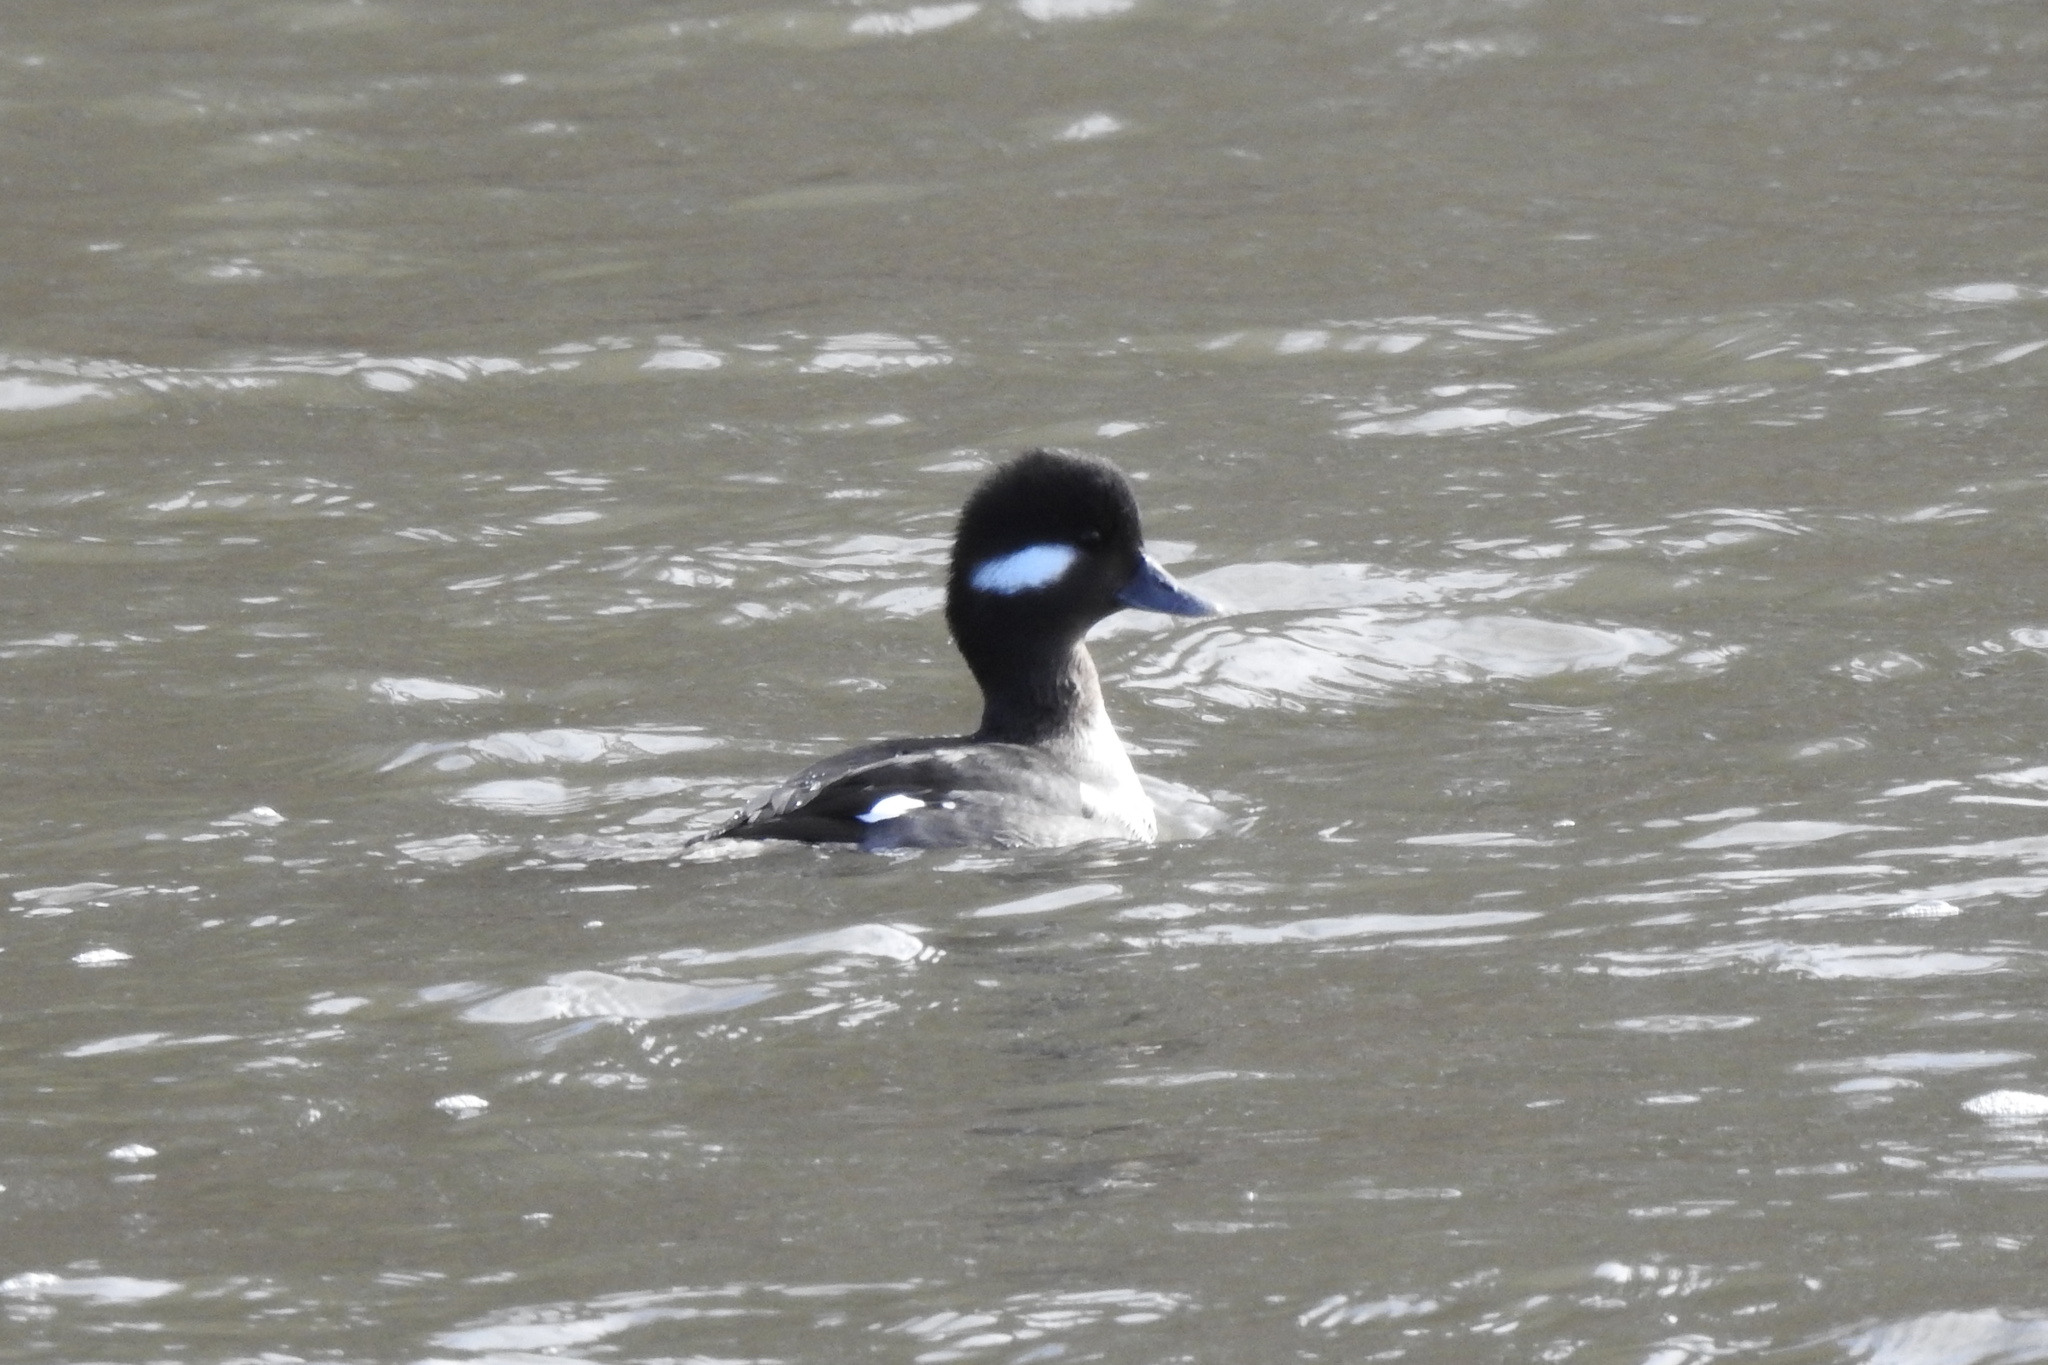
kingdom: Animalia
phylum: Chordata
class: Aves
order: Anseriformes
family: Anatidae
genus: Bucephala
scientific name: Bucephala albeola
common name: Bufflehead
